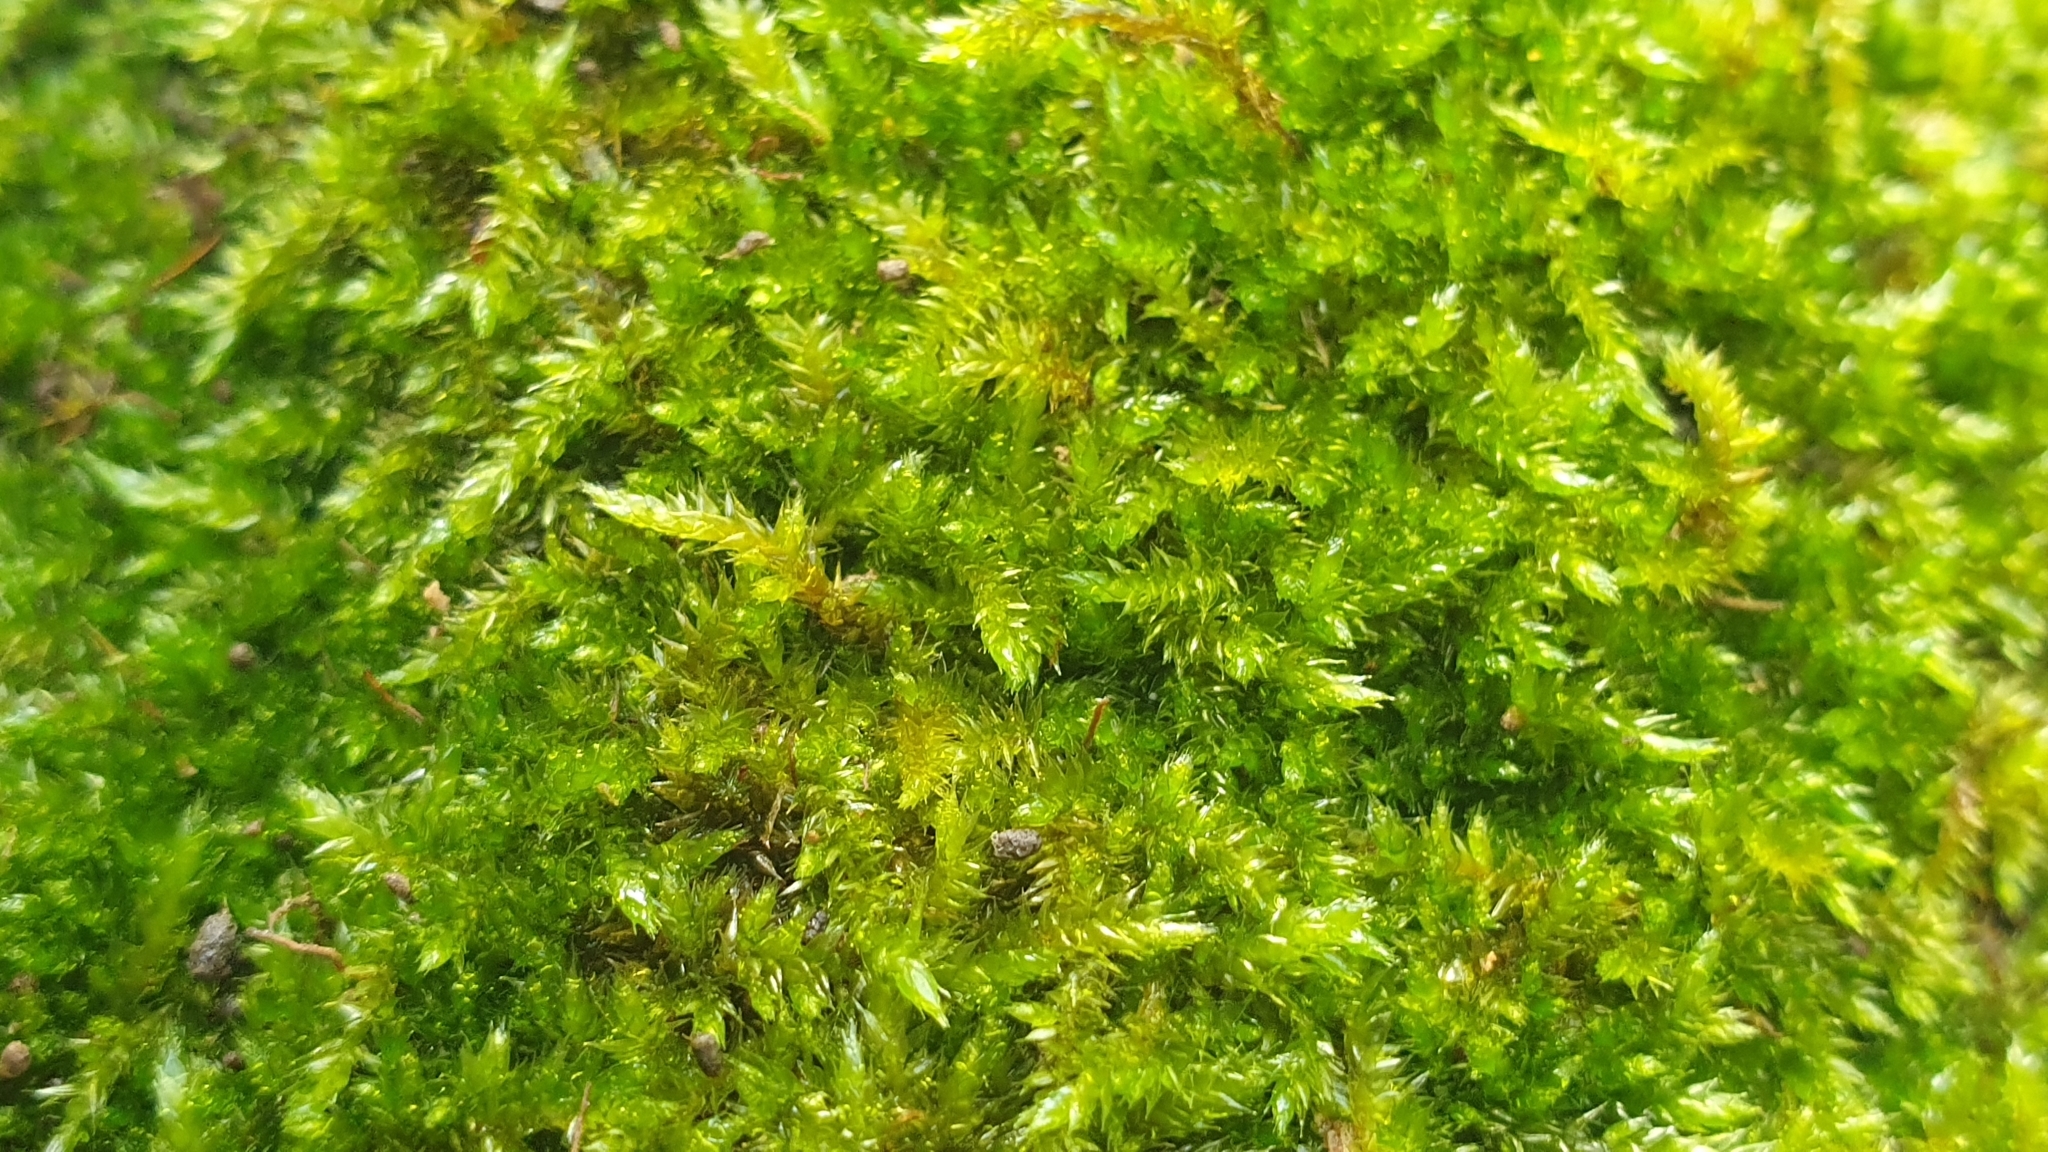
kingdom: Plantae
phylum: Bryophyta
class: Bryopsida
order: Hypnales
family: Sematophyllaceae
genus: Sematophyllum
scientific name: Sematophyllum homomallum
